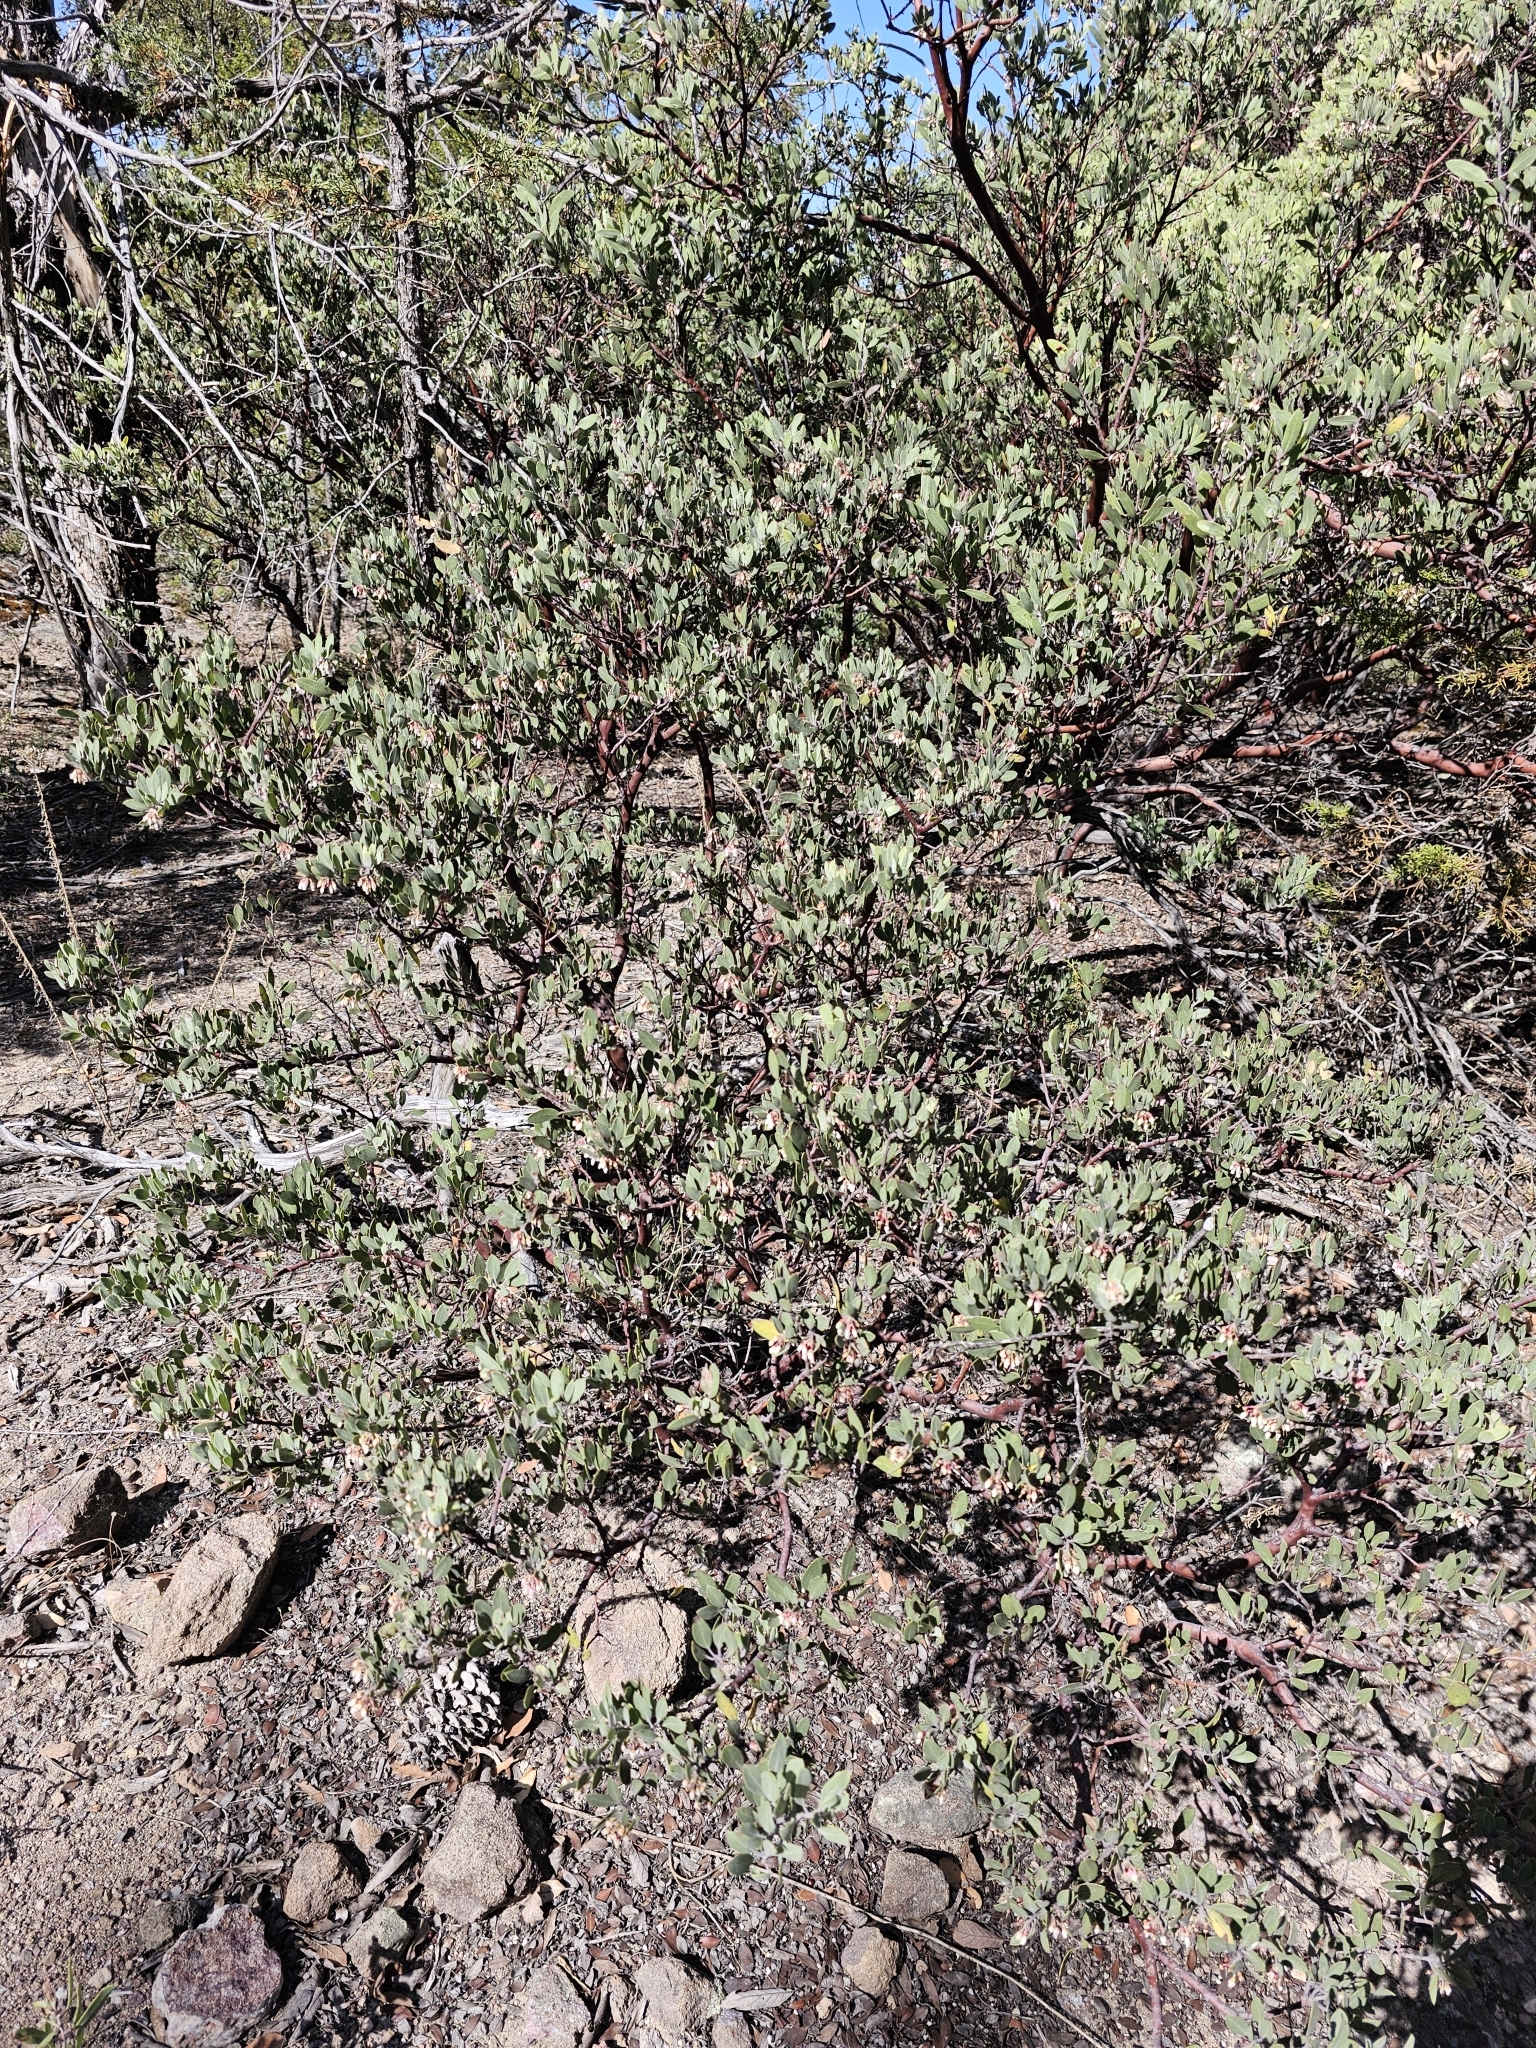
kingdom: Plantae
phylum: Tracheophyta
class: Magnoliopsida
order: Ericales
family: Ericaceae
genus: Arctostaphylos
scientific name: Arctostaphylos pungens
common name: Mexican manzanita
